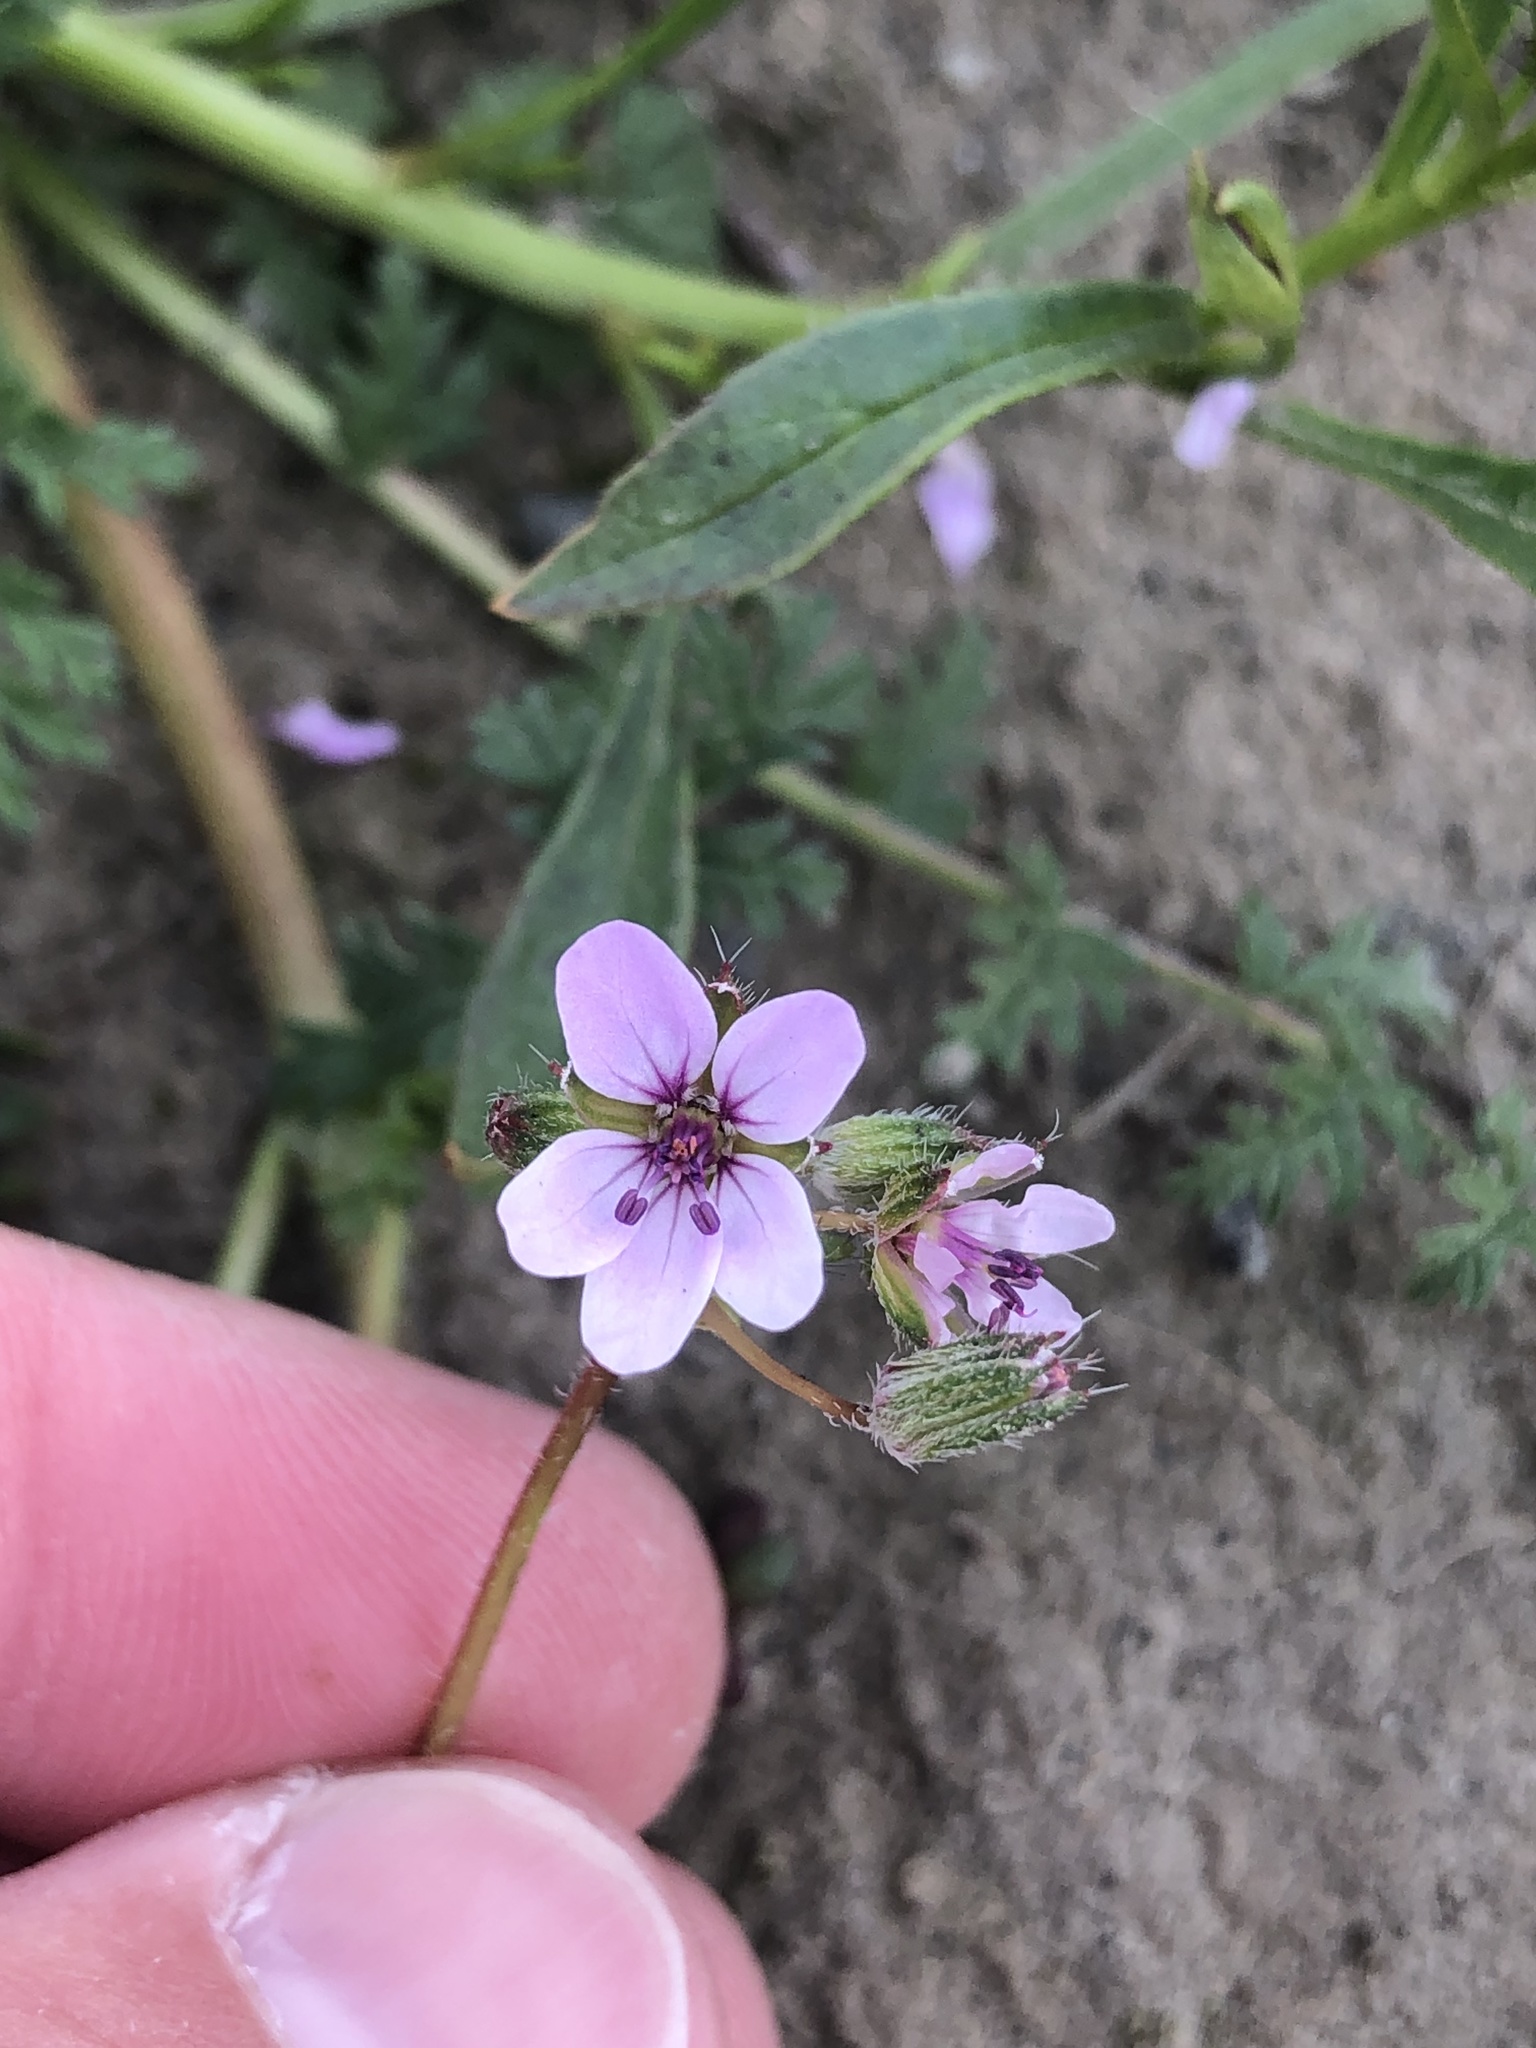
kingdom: Plantae
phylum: Tracheophyta
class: Magnoliopsida
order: Geraniales
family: Geraniaceae
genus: Erodium
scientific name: Erodium cicutarium
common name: Common stork's-bill
